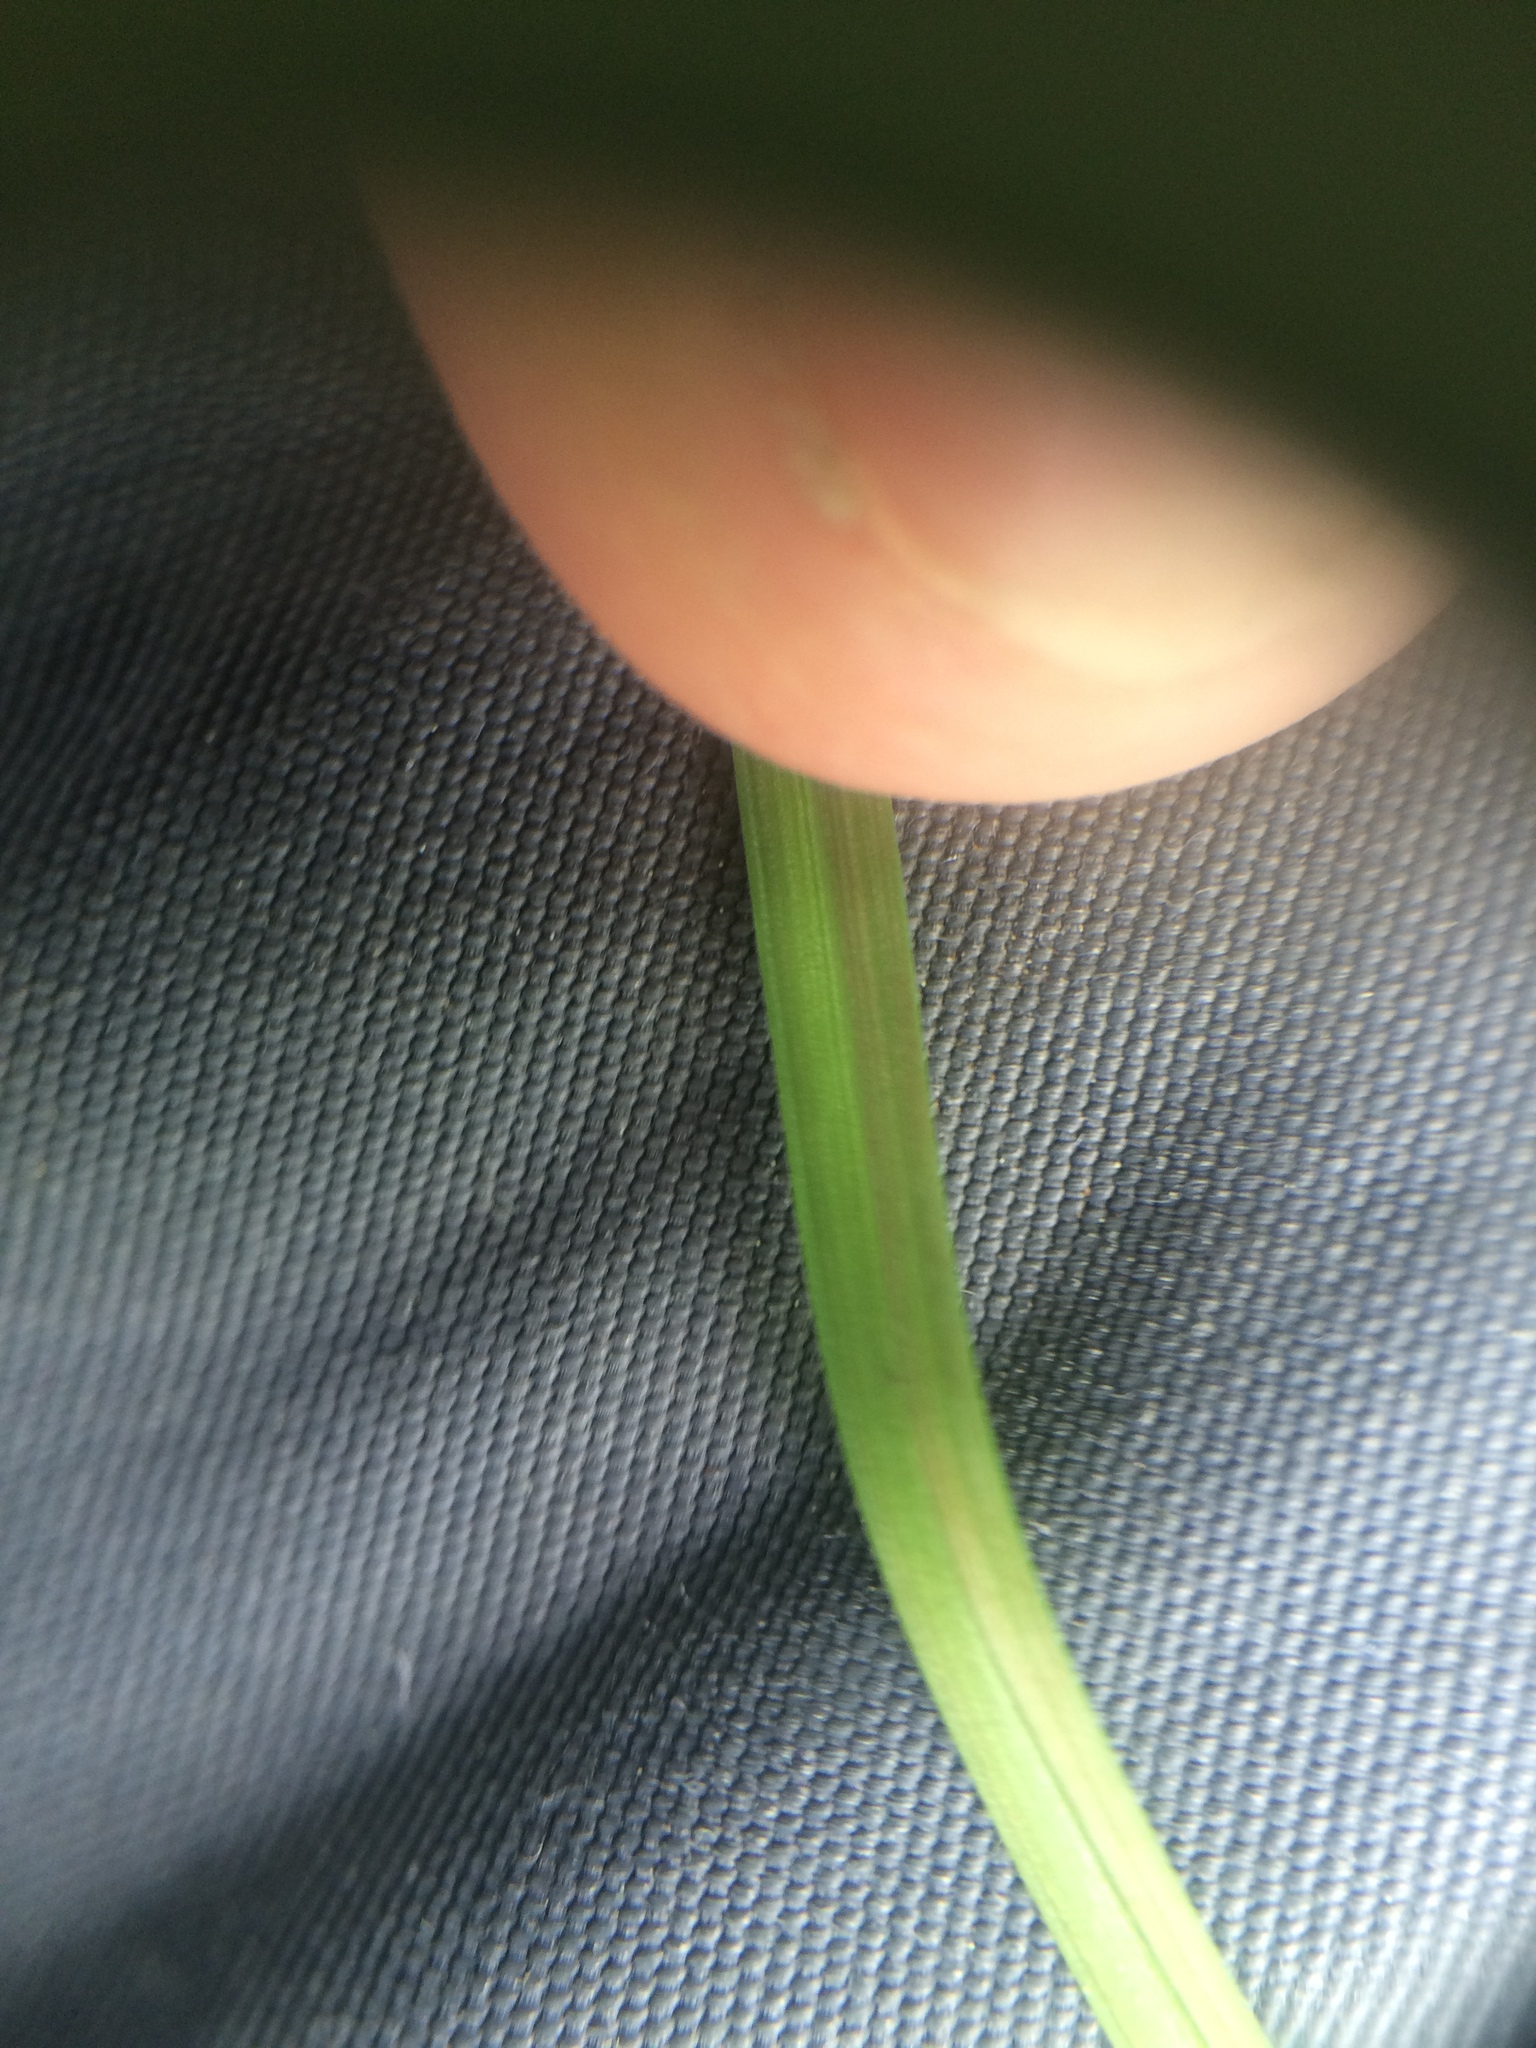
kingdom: Plantae
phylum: Tracheophyta
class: Liliopsida
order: Poales
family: Cyperaceae
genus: Carex
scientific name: Carex canescens
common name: White sedge
